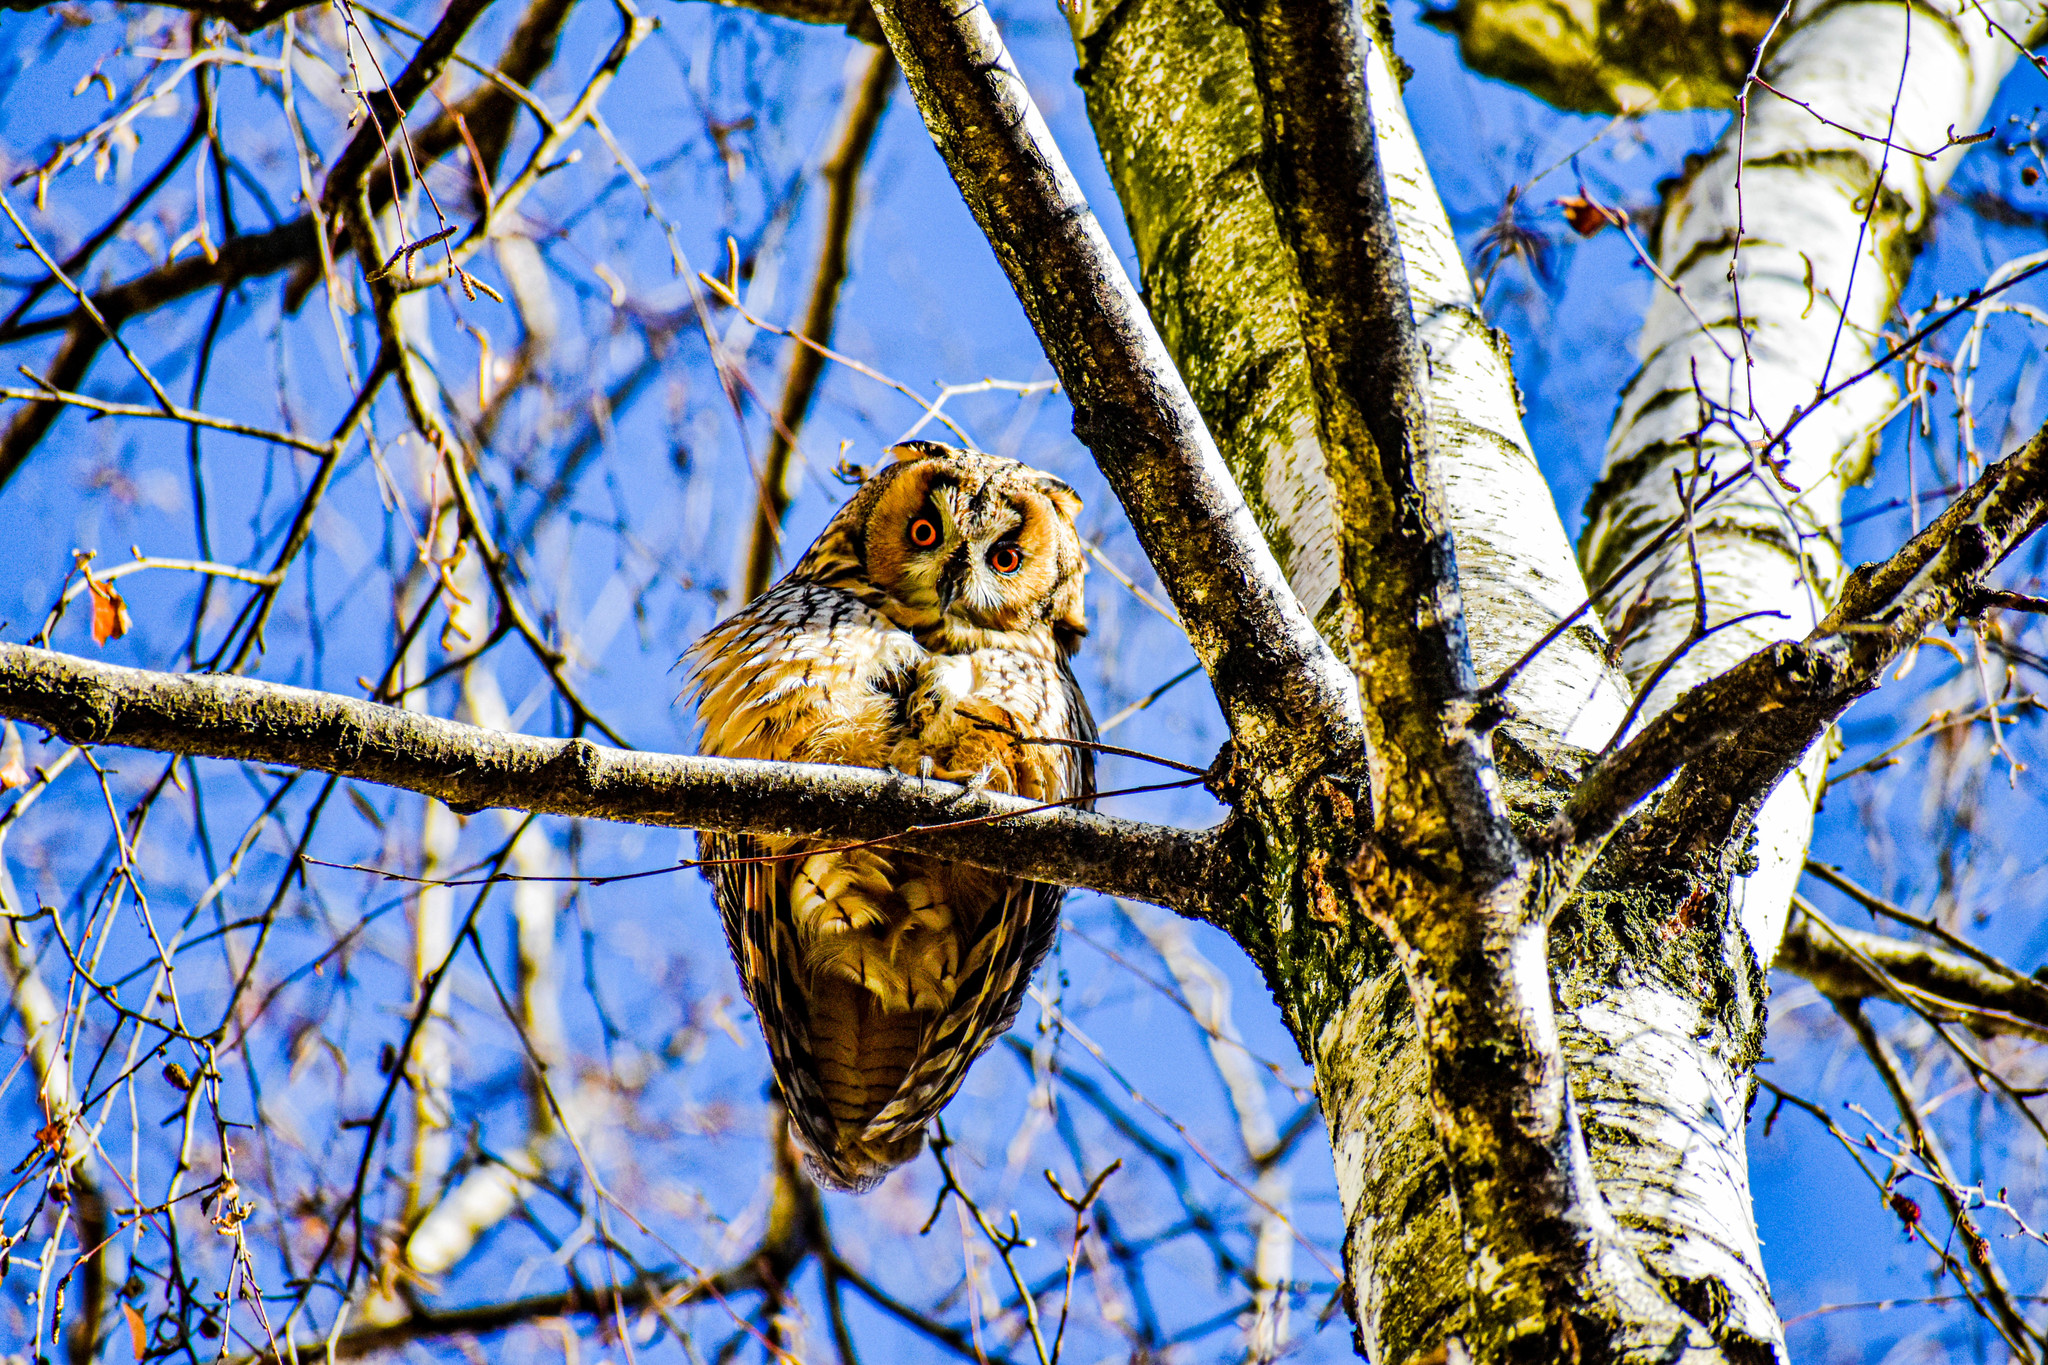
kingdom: Animalia
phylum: Chordata
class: Aves
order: Strigiformes
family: Strigidae
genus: Asio
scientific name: Asio otus
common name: Long-eared owl
